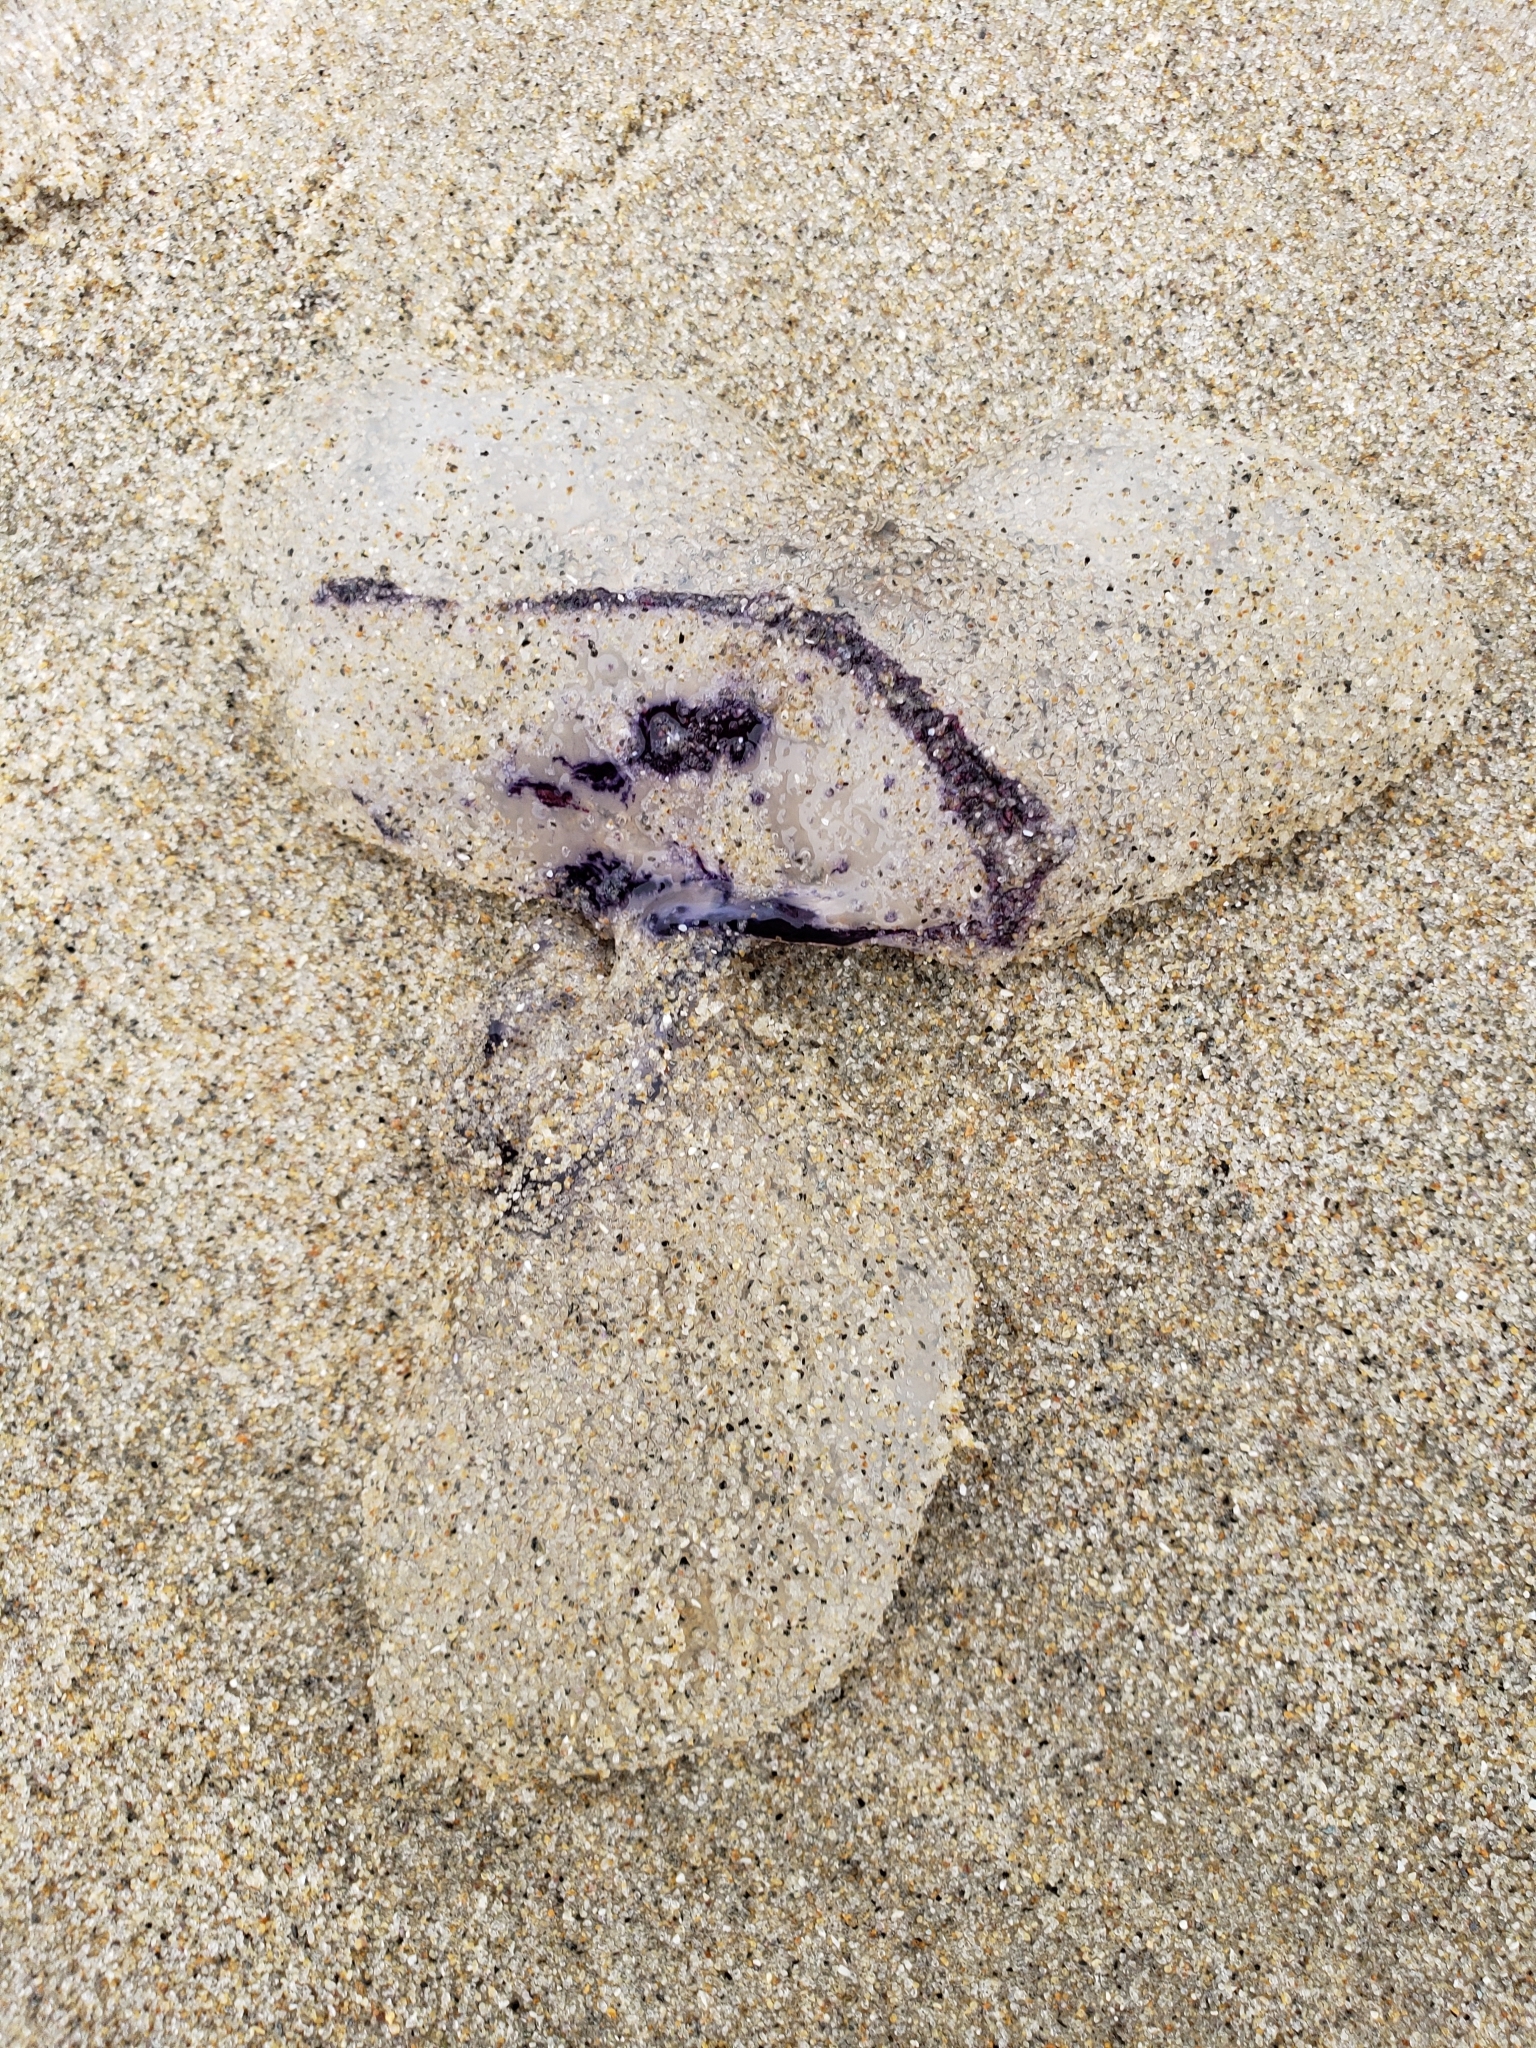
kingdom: Animalia
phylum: Cnidaria
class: Scyphozoa
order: Semaeostomeae
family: Pelagiidae
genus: Chrysaora
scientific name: Chrysaora colorata
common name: Purple-striped jellyfish
